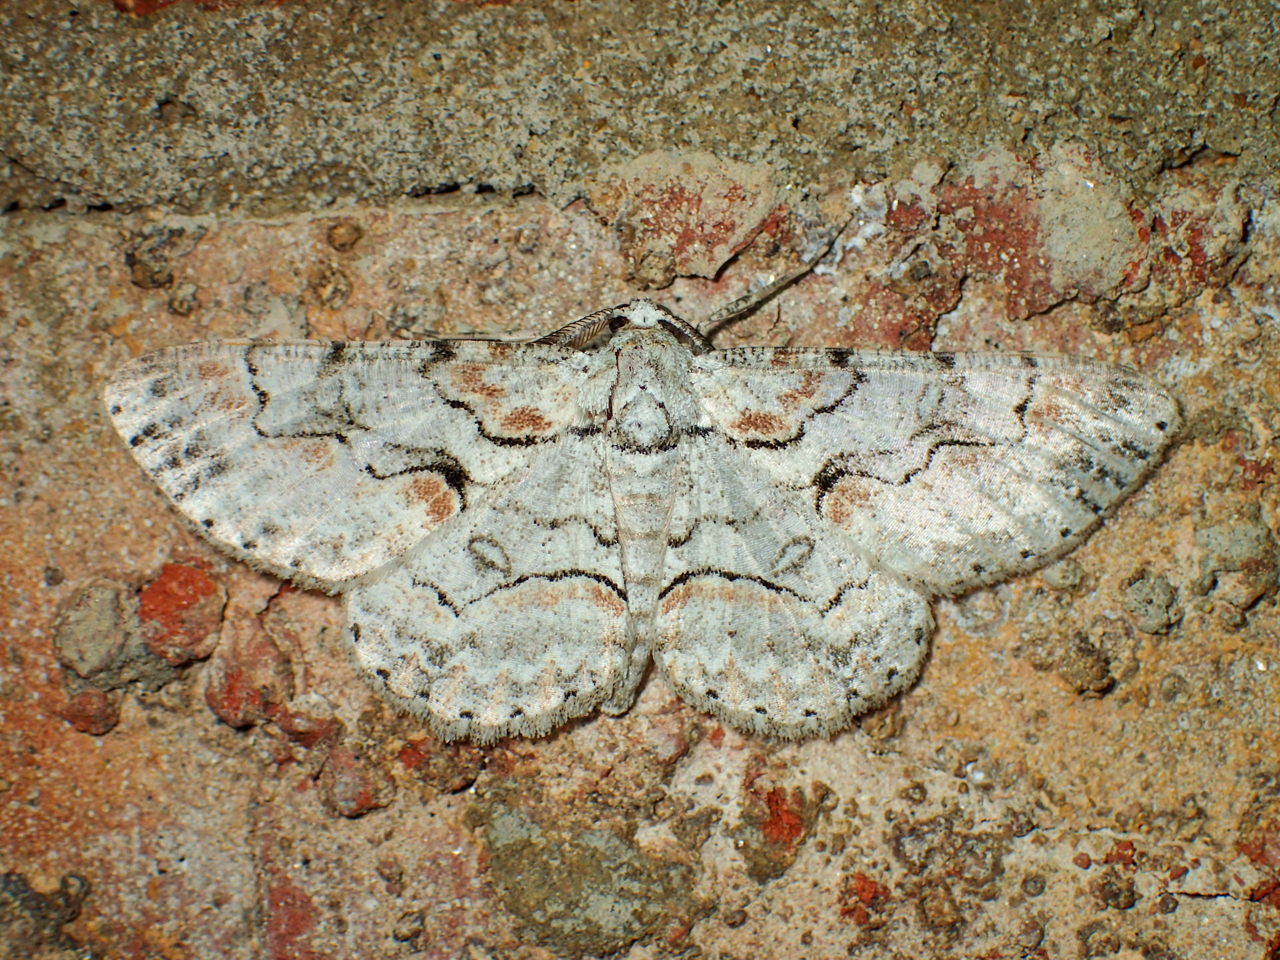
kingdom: Animalia
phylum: Arthropoda
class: Insecta
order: Lepidoptera
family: Geometridae
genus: Iridopsis
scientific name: Iridopsis defectaria
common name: Brown-shaded gray
